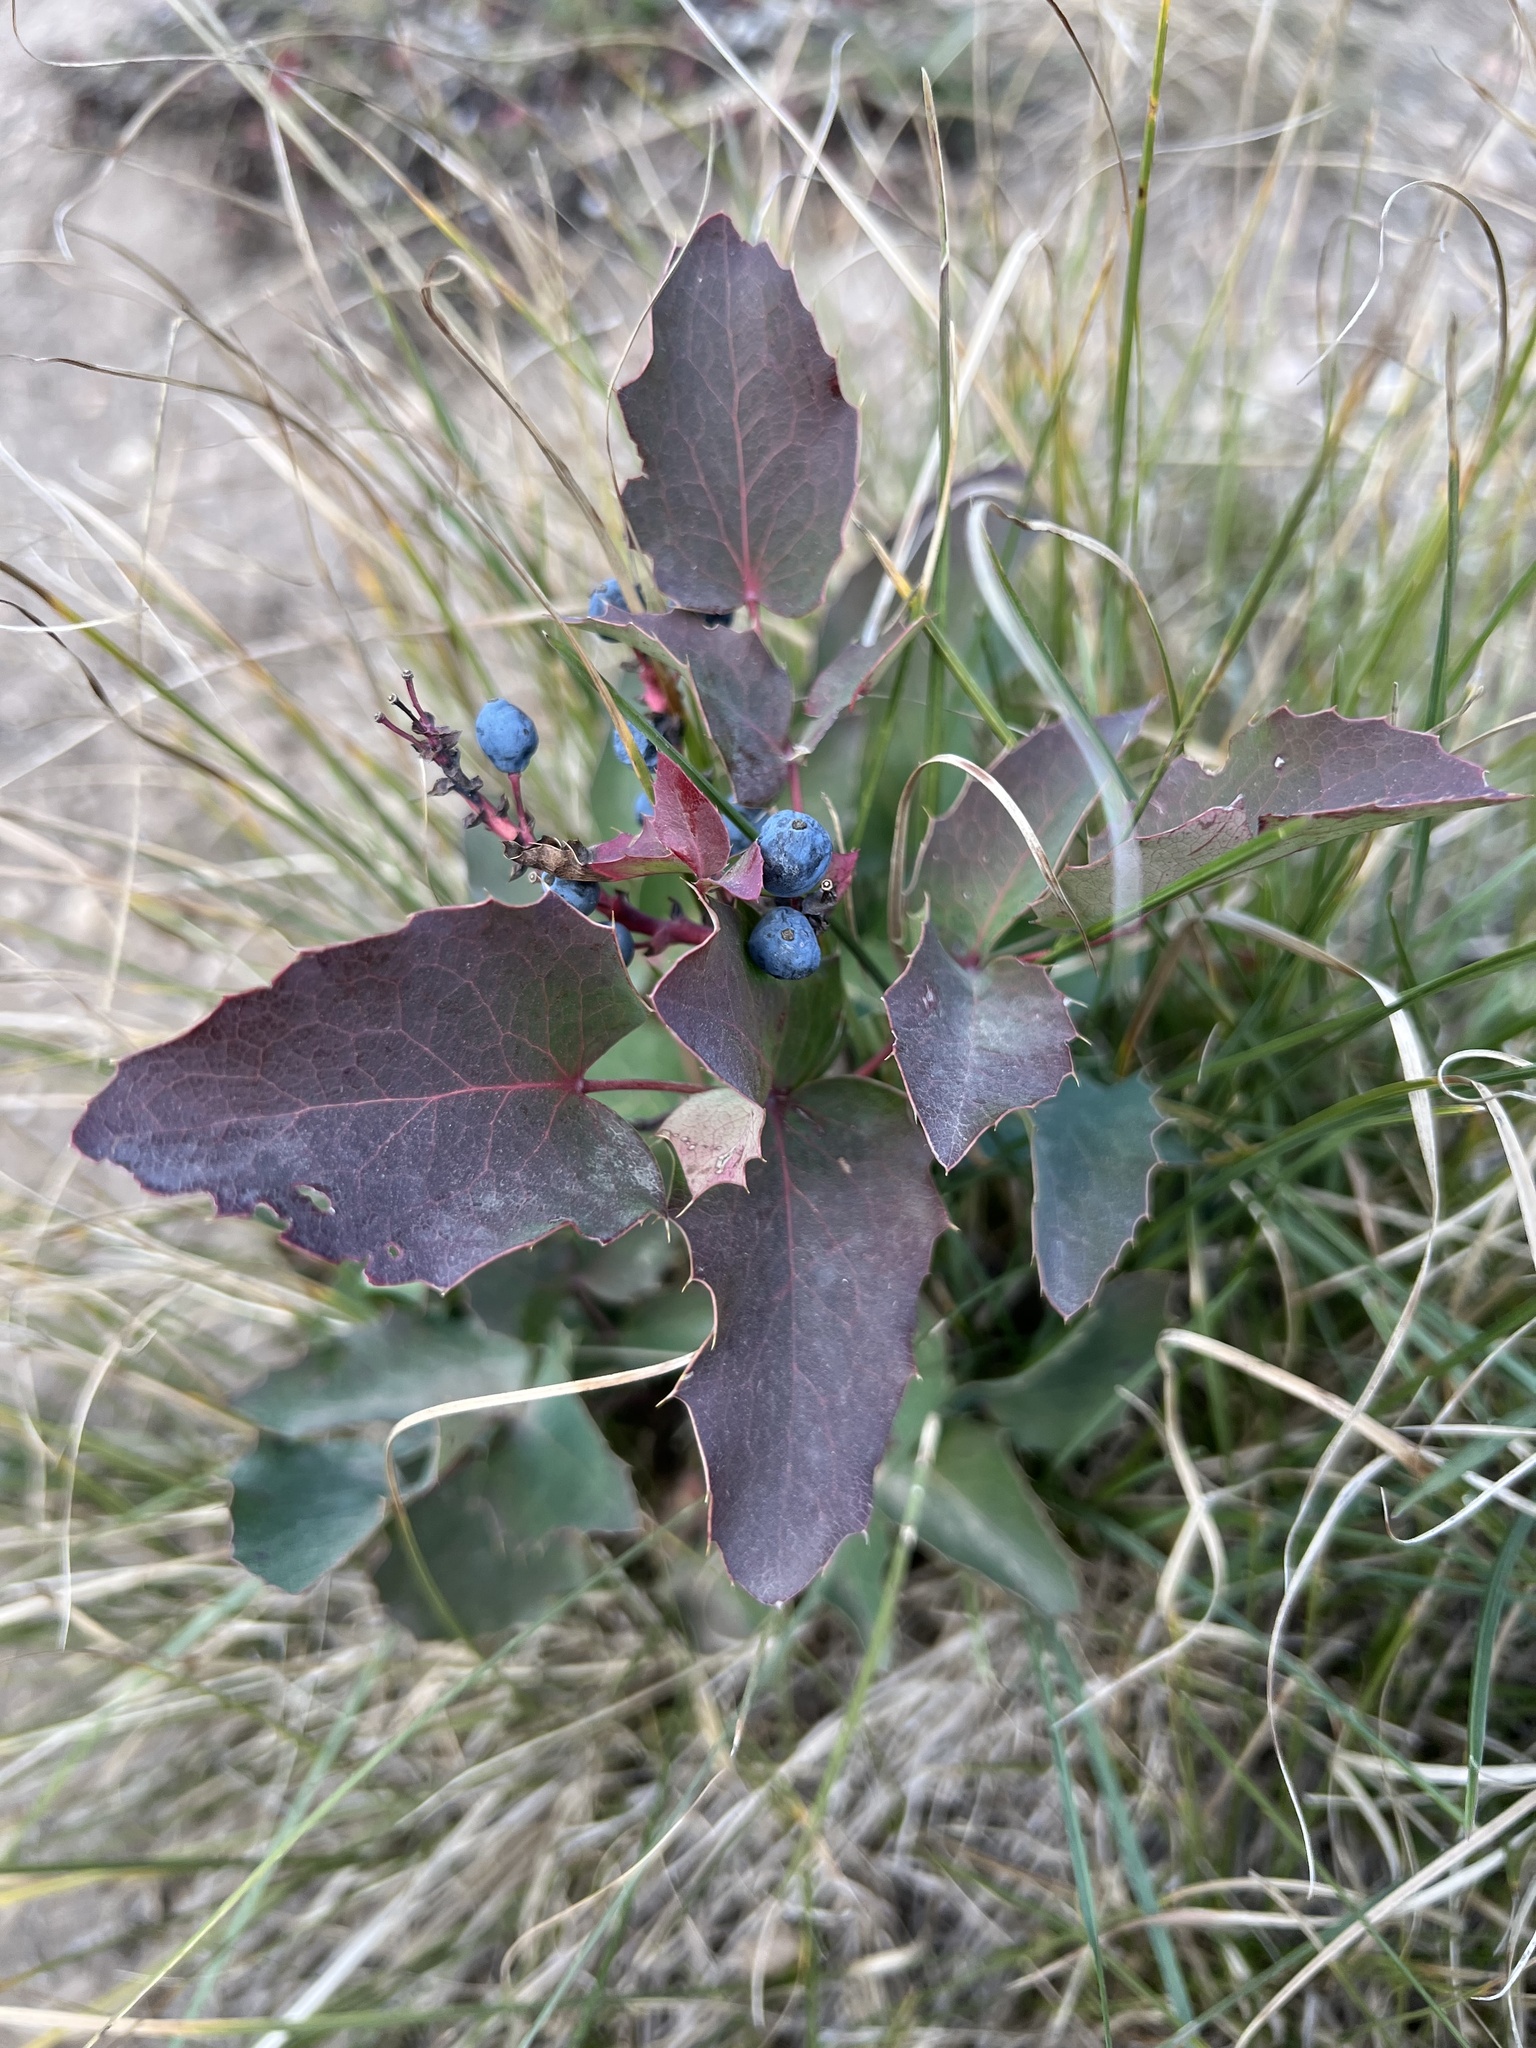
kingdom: Plantae
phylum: Tracheophyta
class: Magnoliopsida
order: Ranunculales
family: Berberidaceae
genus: Mahonia
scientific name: Mahonia repens
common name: Creeping oregon-grape
